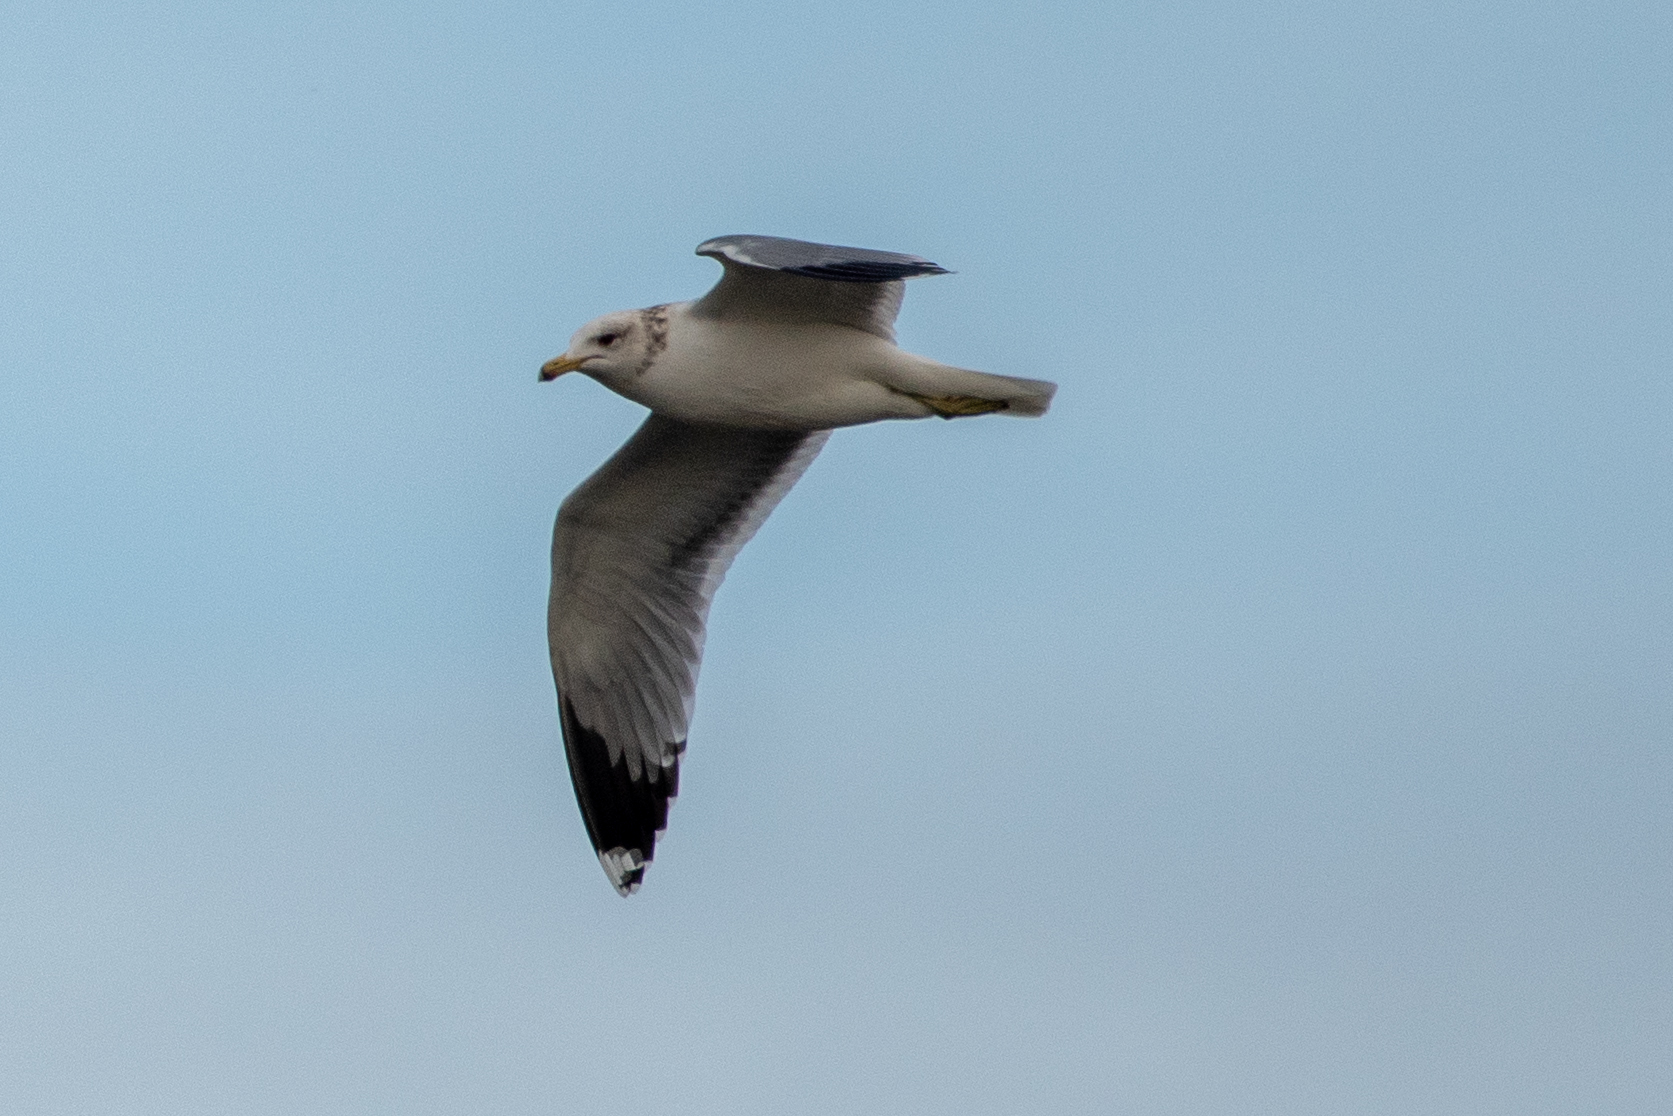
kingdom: Animalia
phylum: Chordata
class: Aves
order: Charadriiformes
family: Laridae
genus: Larus
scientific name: Larus californicus
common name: California gull
